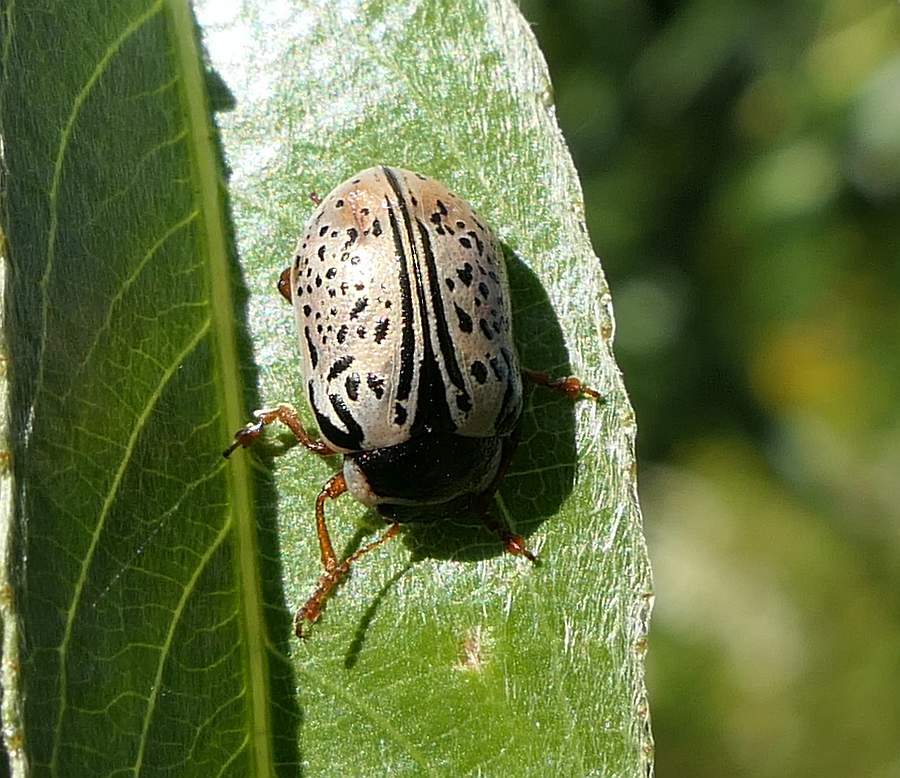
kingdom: Animalia
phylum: Arthropoda
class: Insecta
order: Coleoptera
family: Chrysomelidae
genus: Calligrapha
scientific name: Calligrapha multipunctata
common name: Common willow calligrapher beetle
